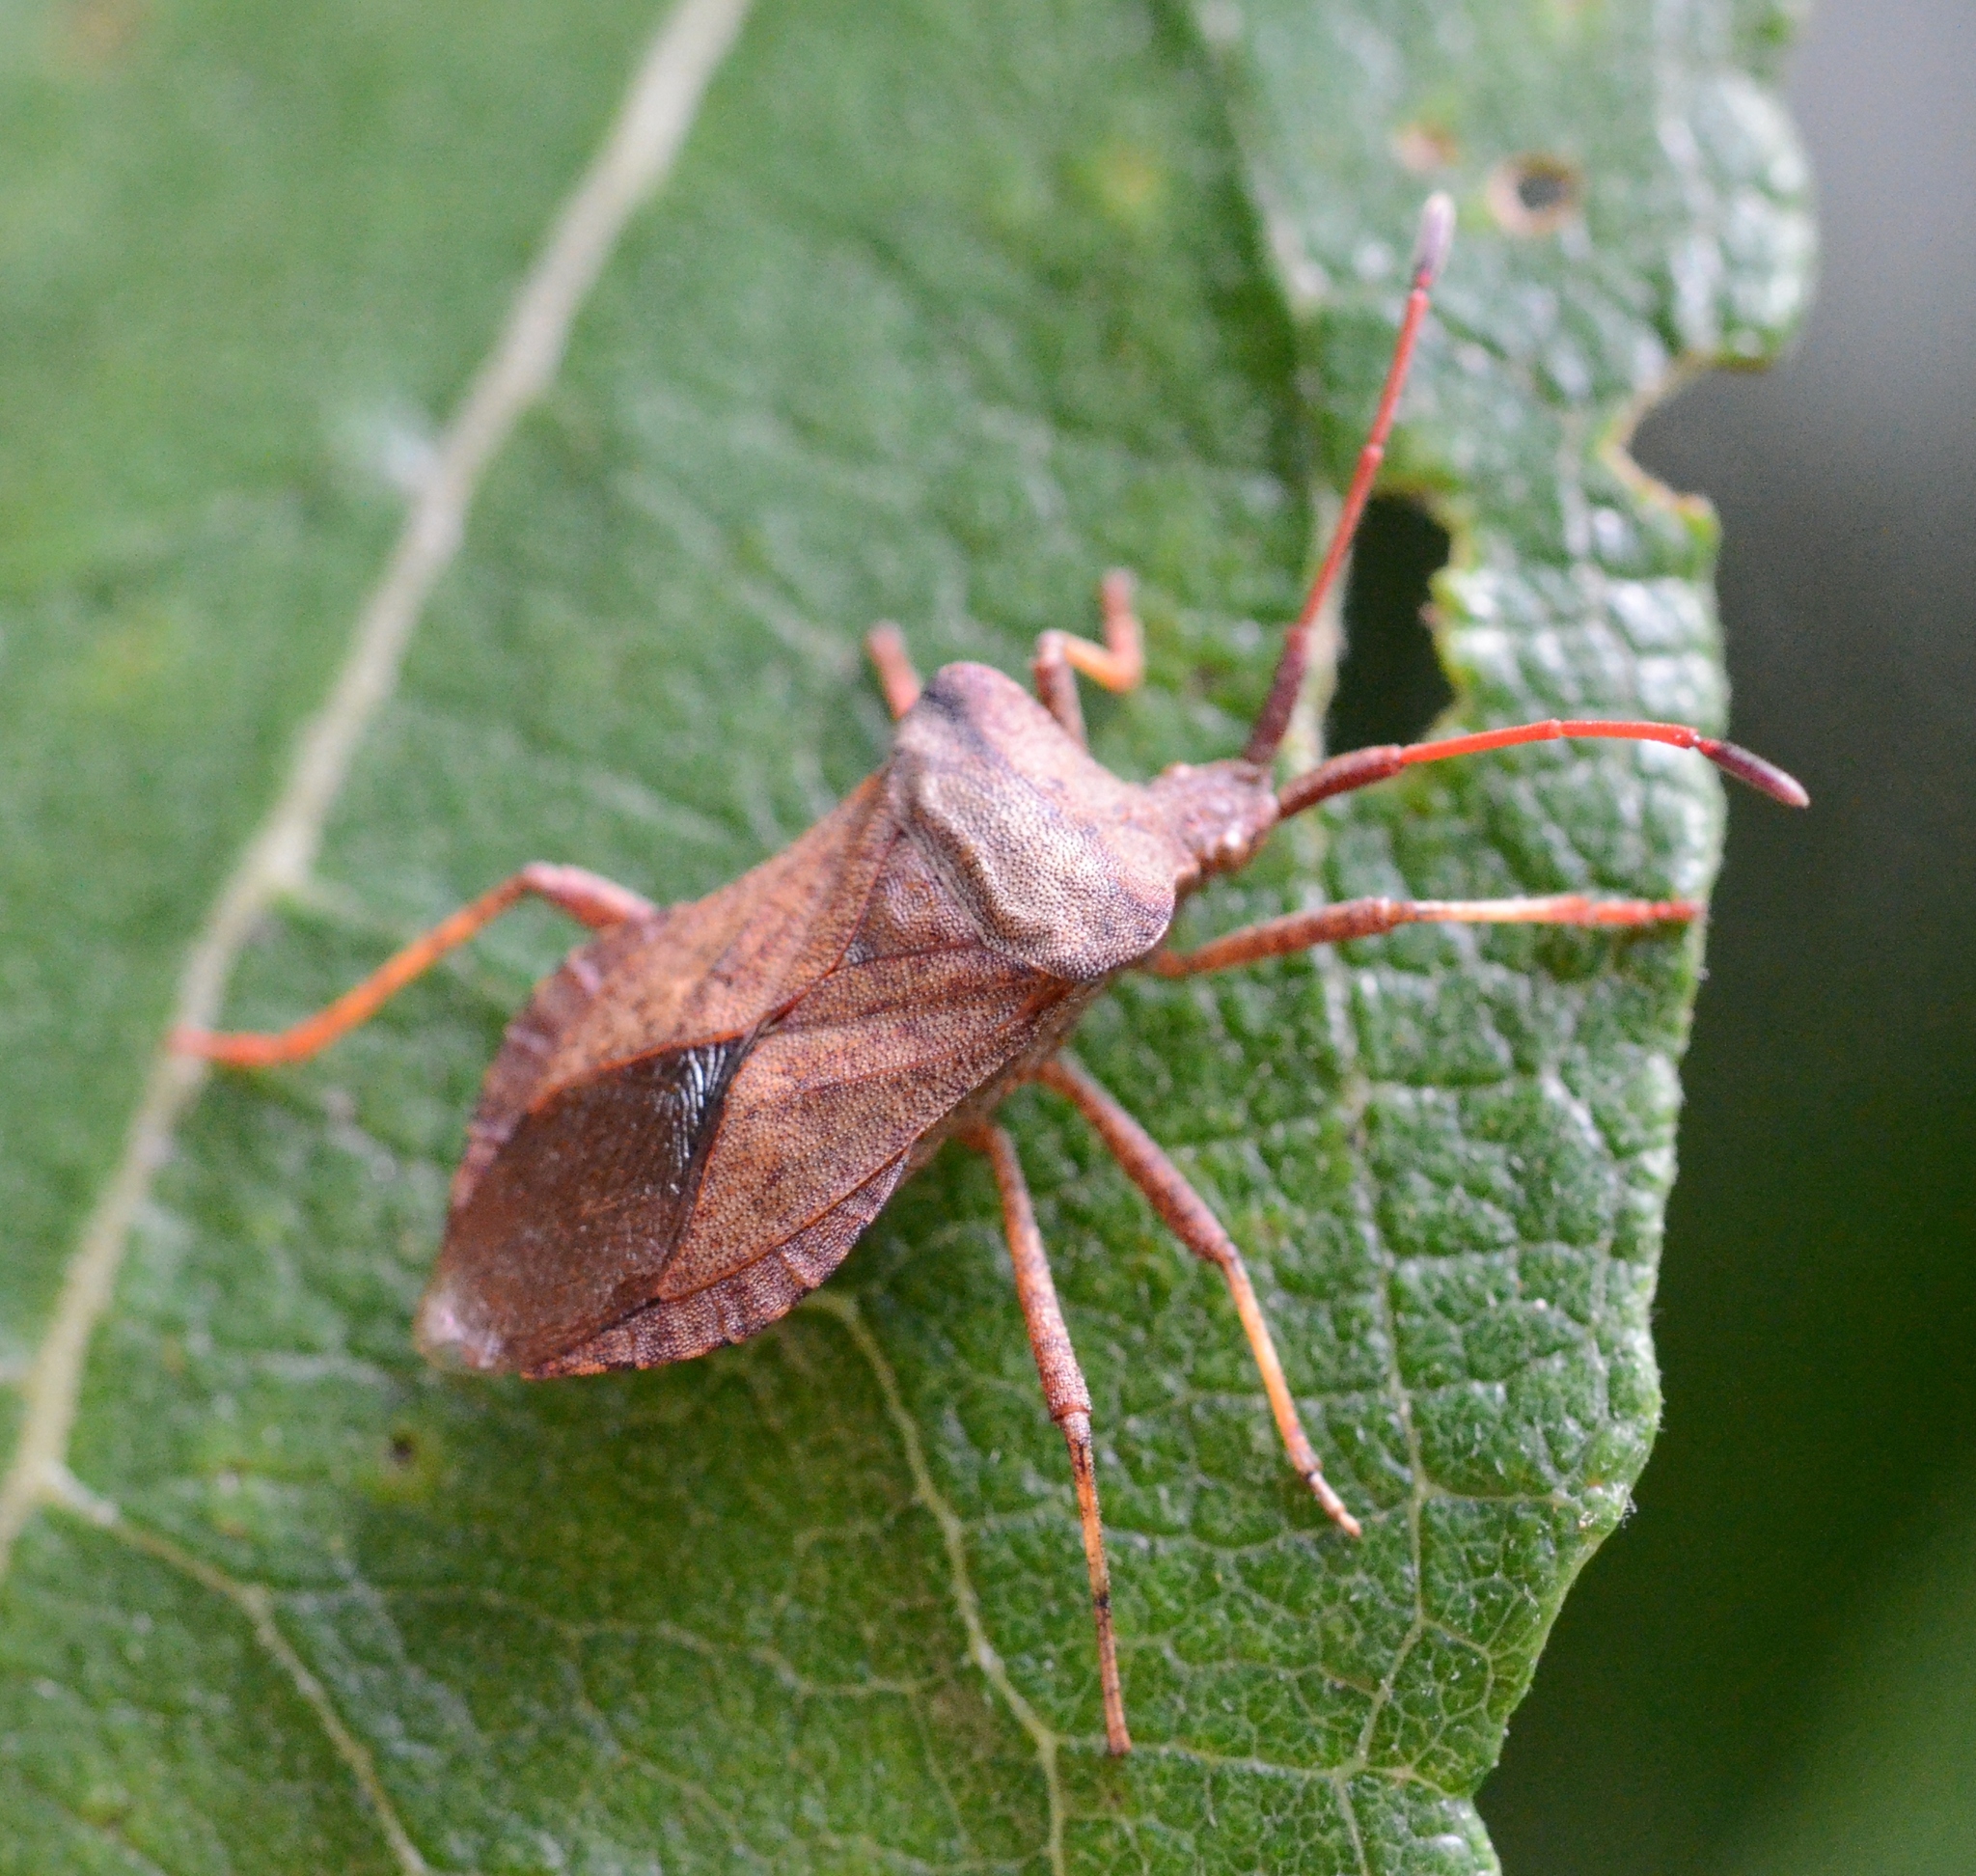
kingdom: Animalia
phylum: Arthropoda
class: Insecta
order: Hemiptera
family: Coreidae
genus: Coreus
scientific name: Coreus marginatus
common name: Dock bug
